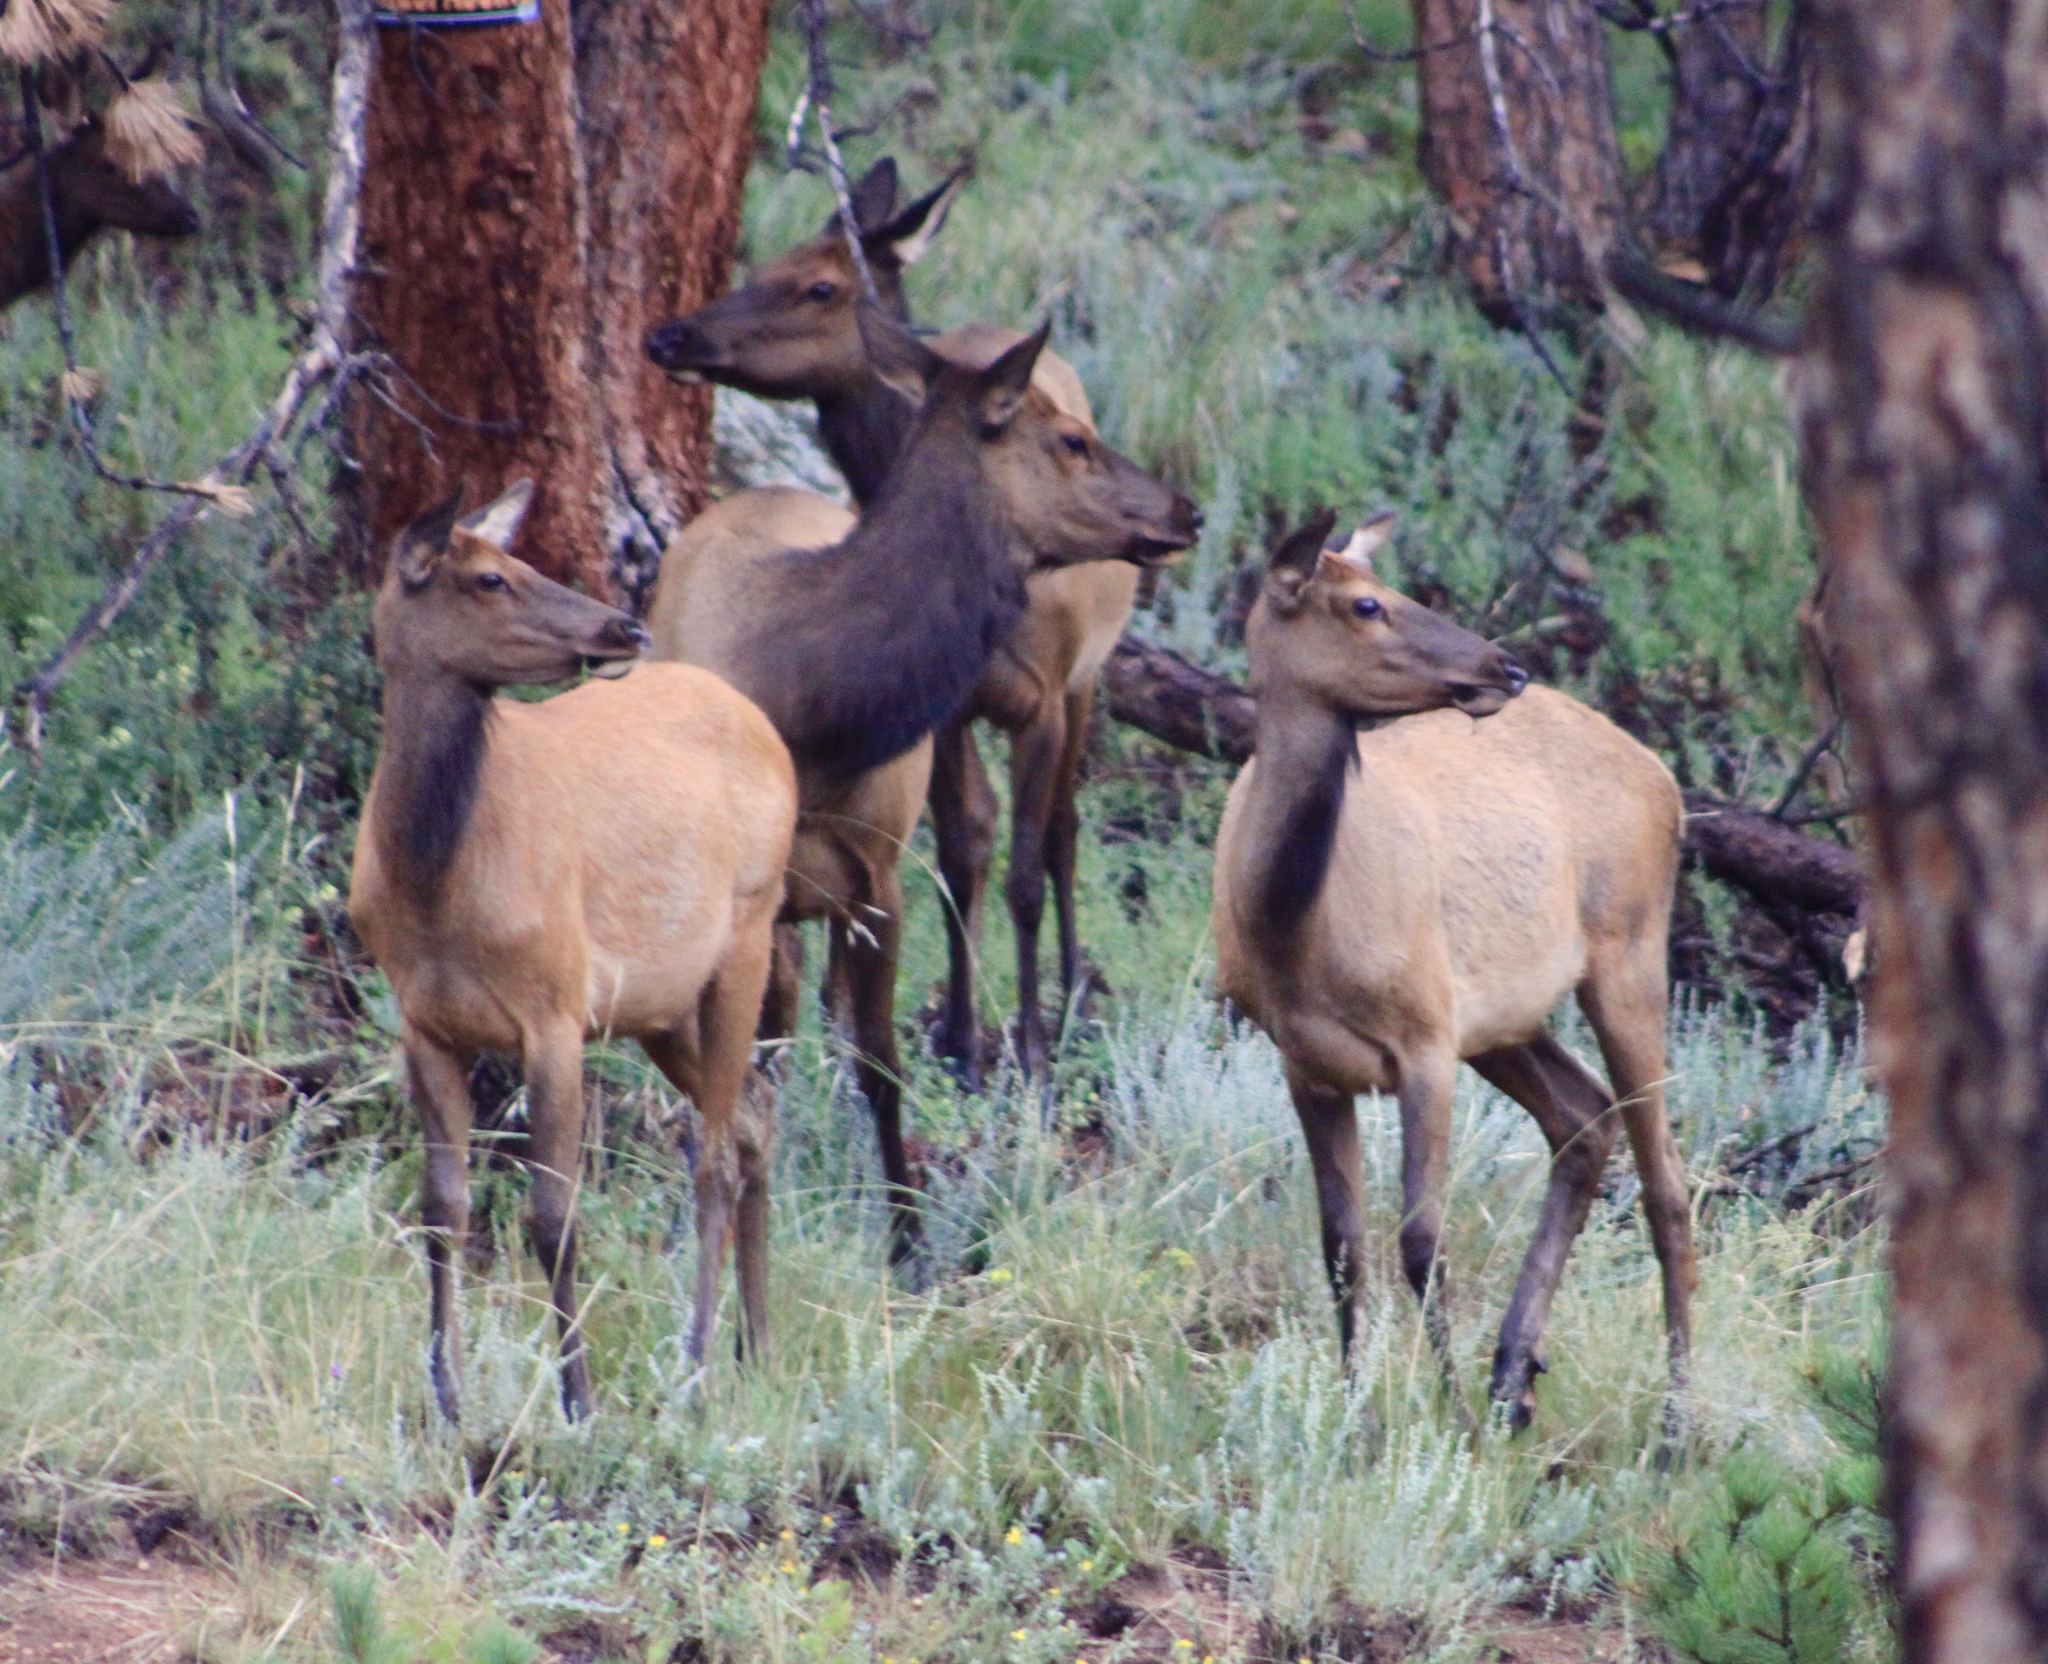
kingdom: Animalia
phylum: Chordata
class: Mammalia
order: Artiodactyla
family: Cervidae
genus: Cervus
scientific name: Cervus elaphus
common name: Red deer
